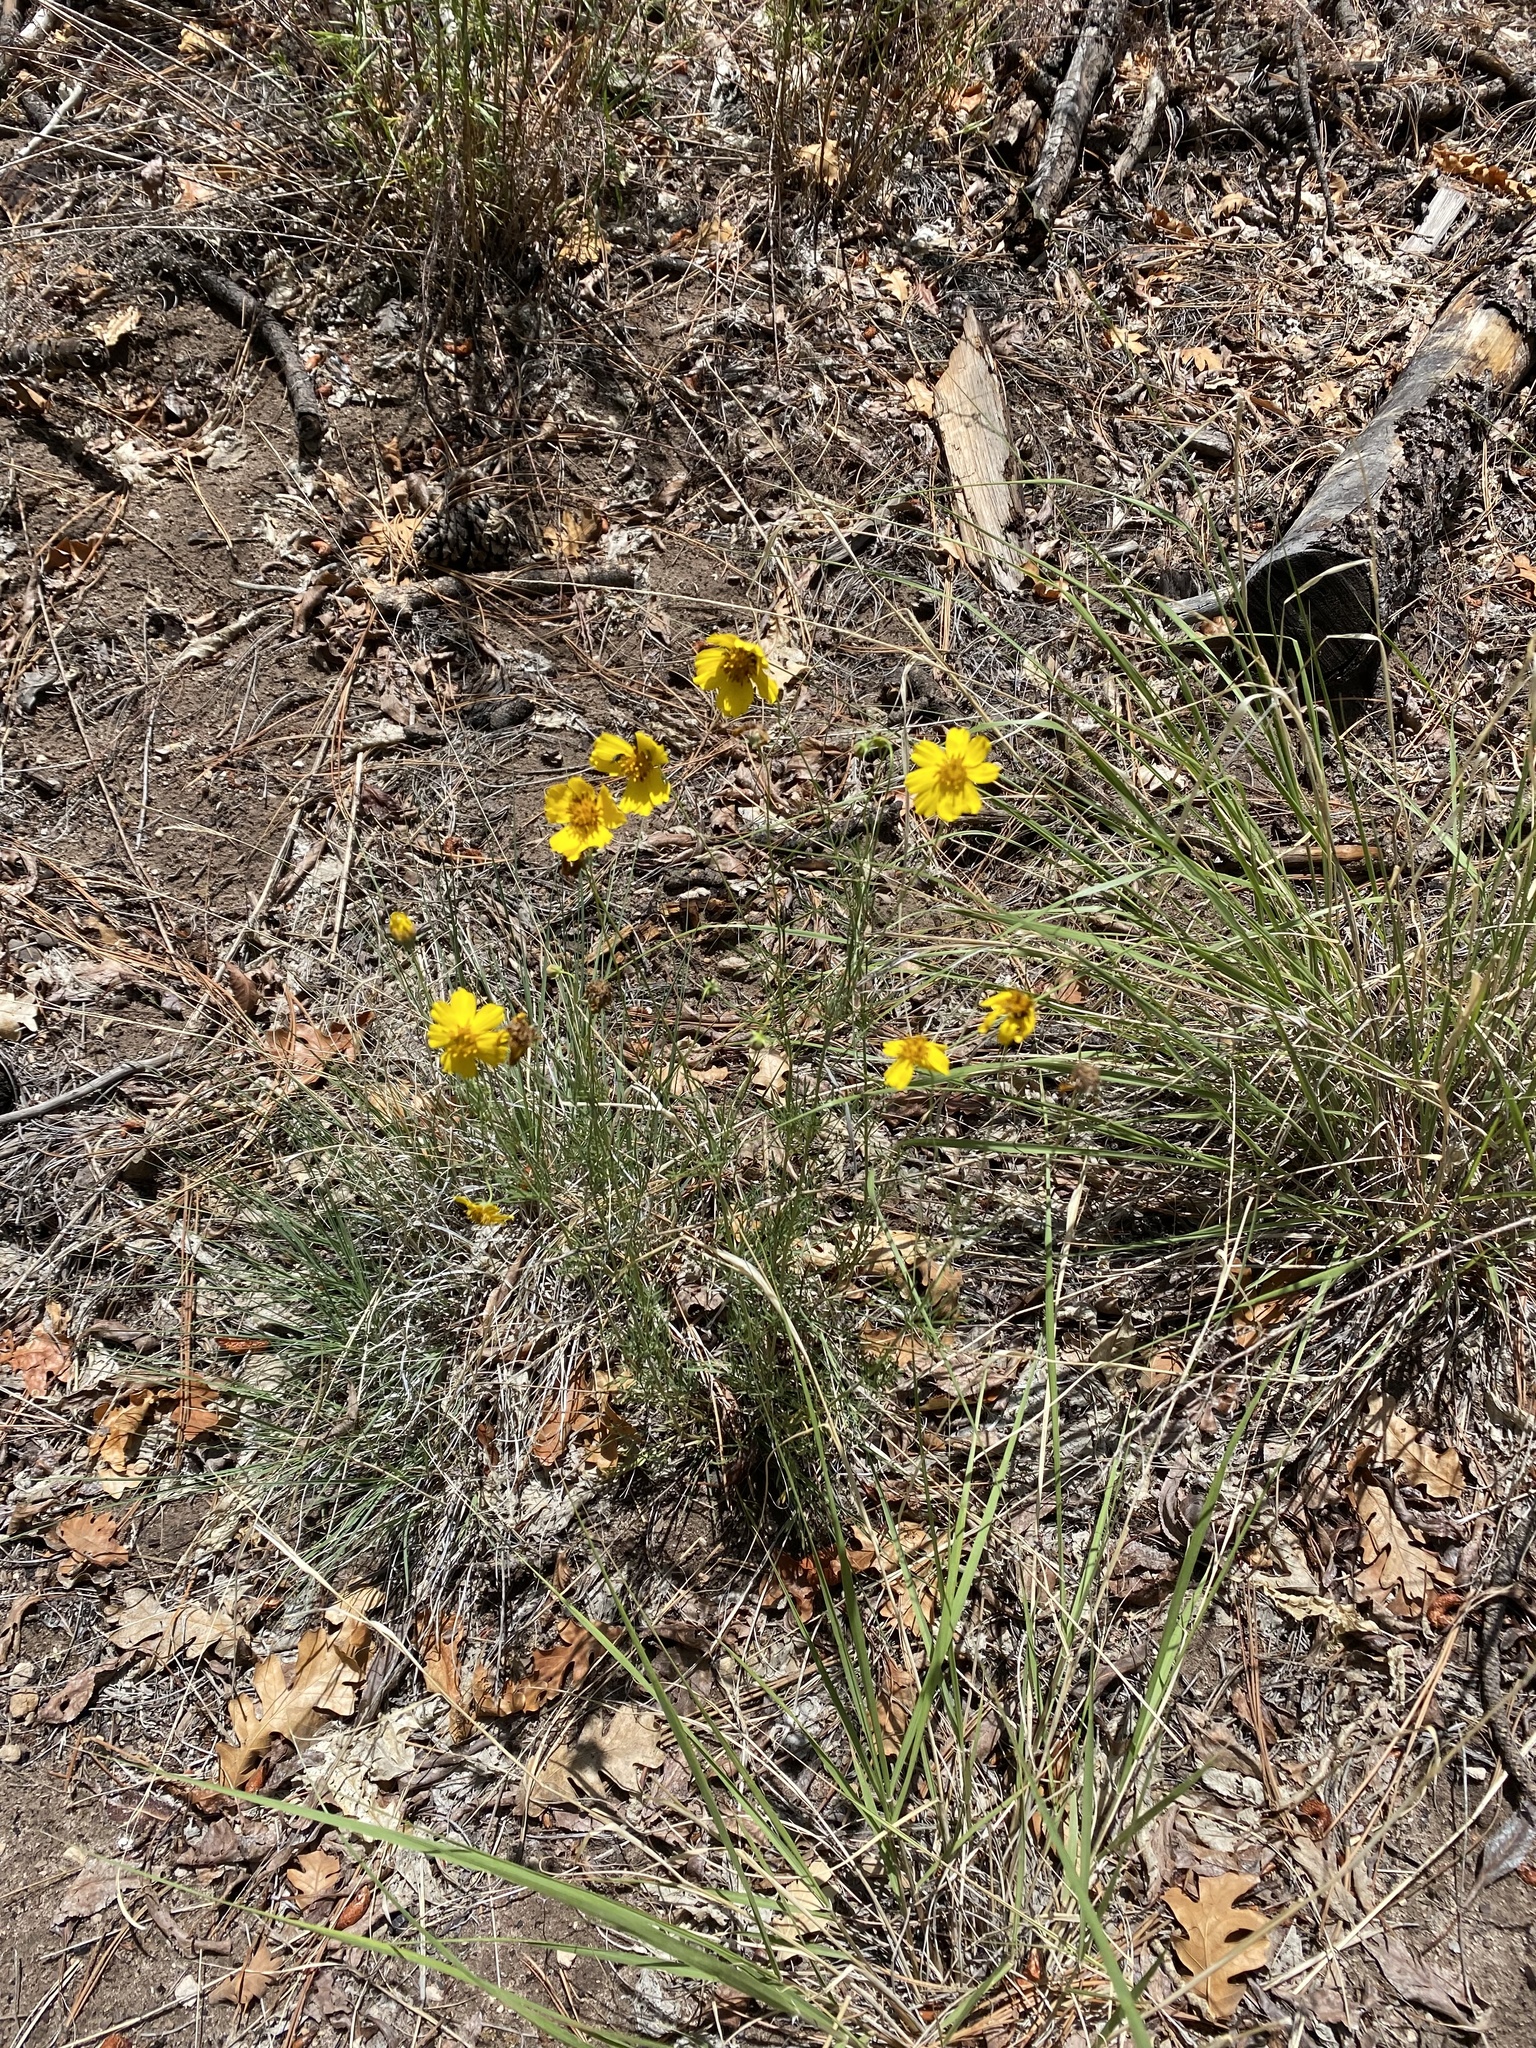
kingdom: Plantae
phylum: Tracheophyta
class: Magnoliopsida
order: Asterales
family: Asteraceae
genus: Thelesperma
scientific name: Thelesperma filifolium
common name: Stiff greenthread
